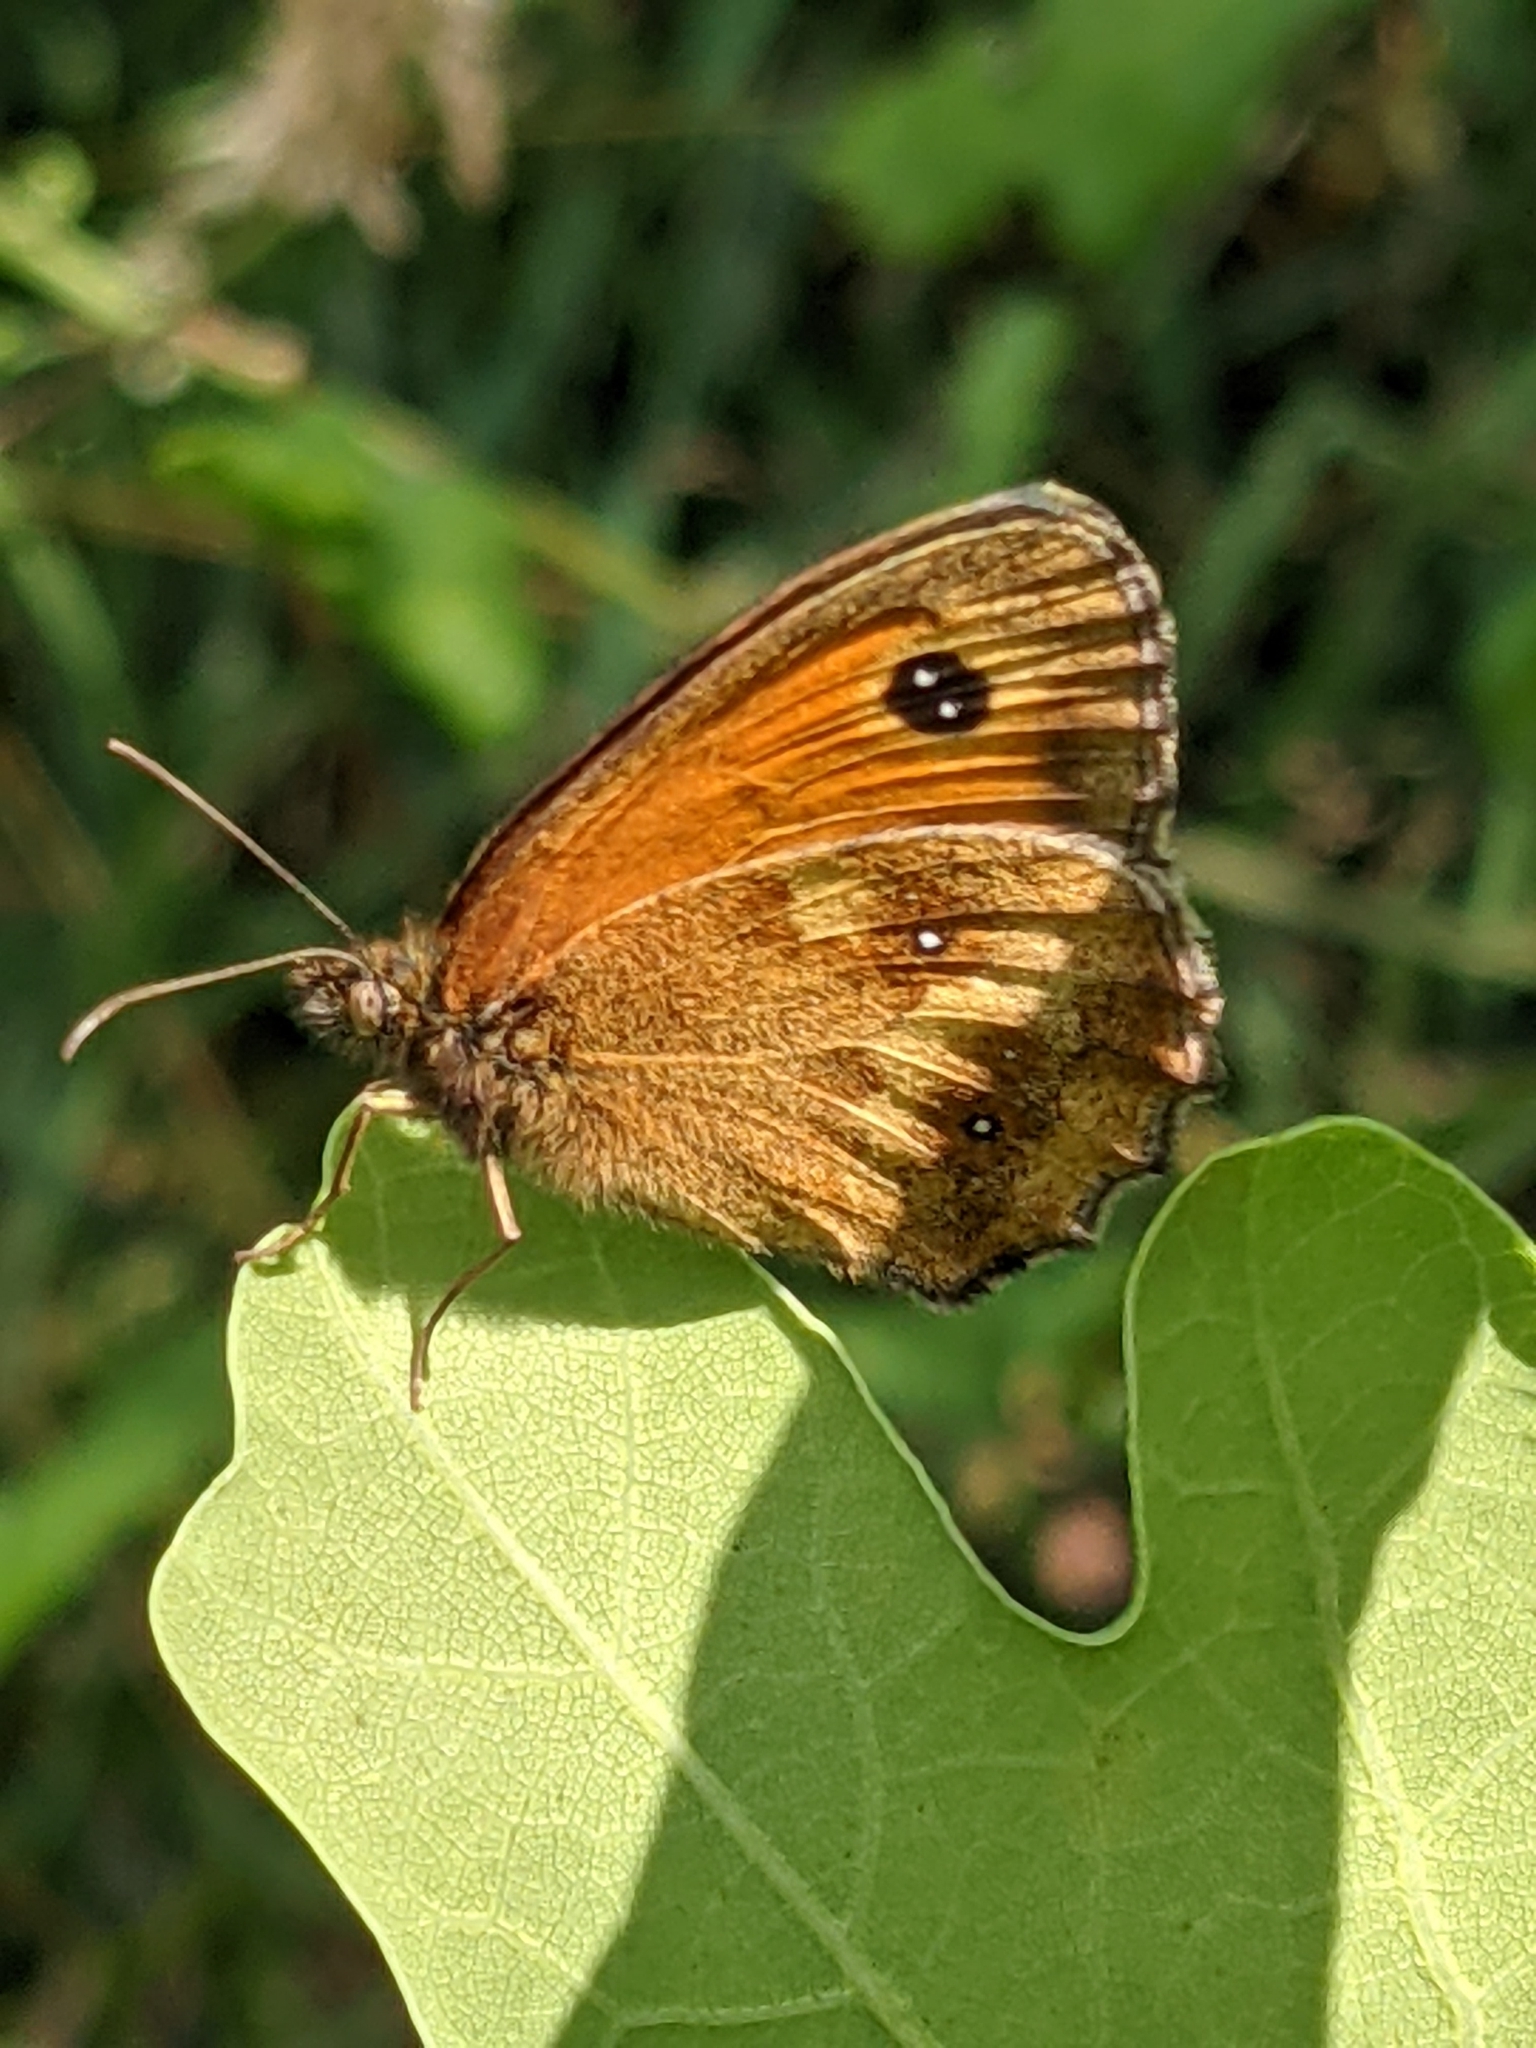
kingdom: Animalia
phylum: Arthropoda
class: Insecta
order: Lepidoptera
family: Nymphalidae
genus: Pyronia
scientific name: Pyronia tithonus
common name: Gatekeeper
